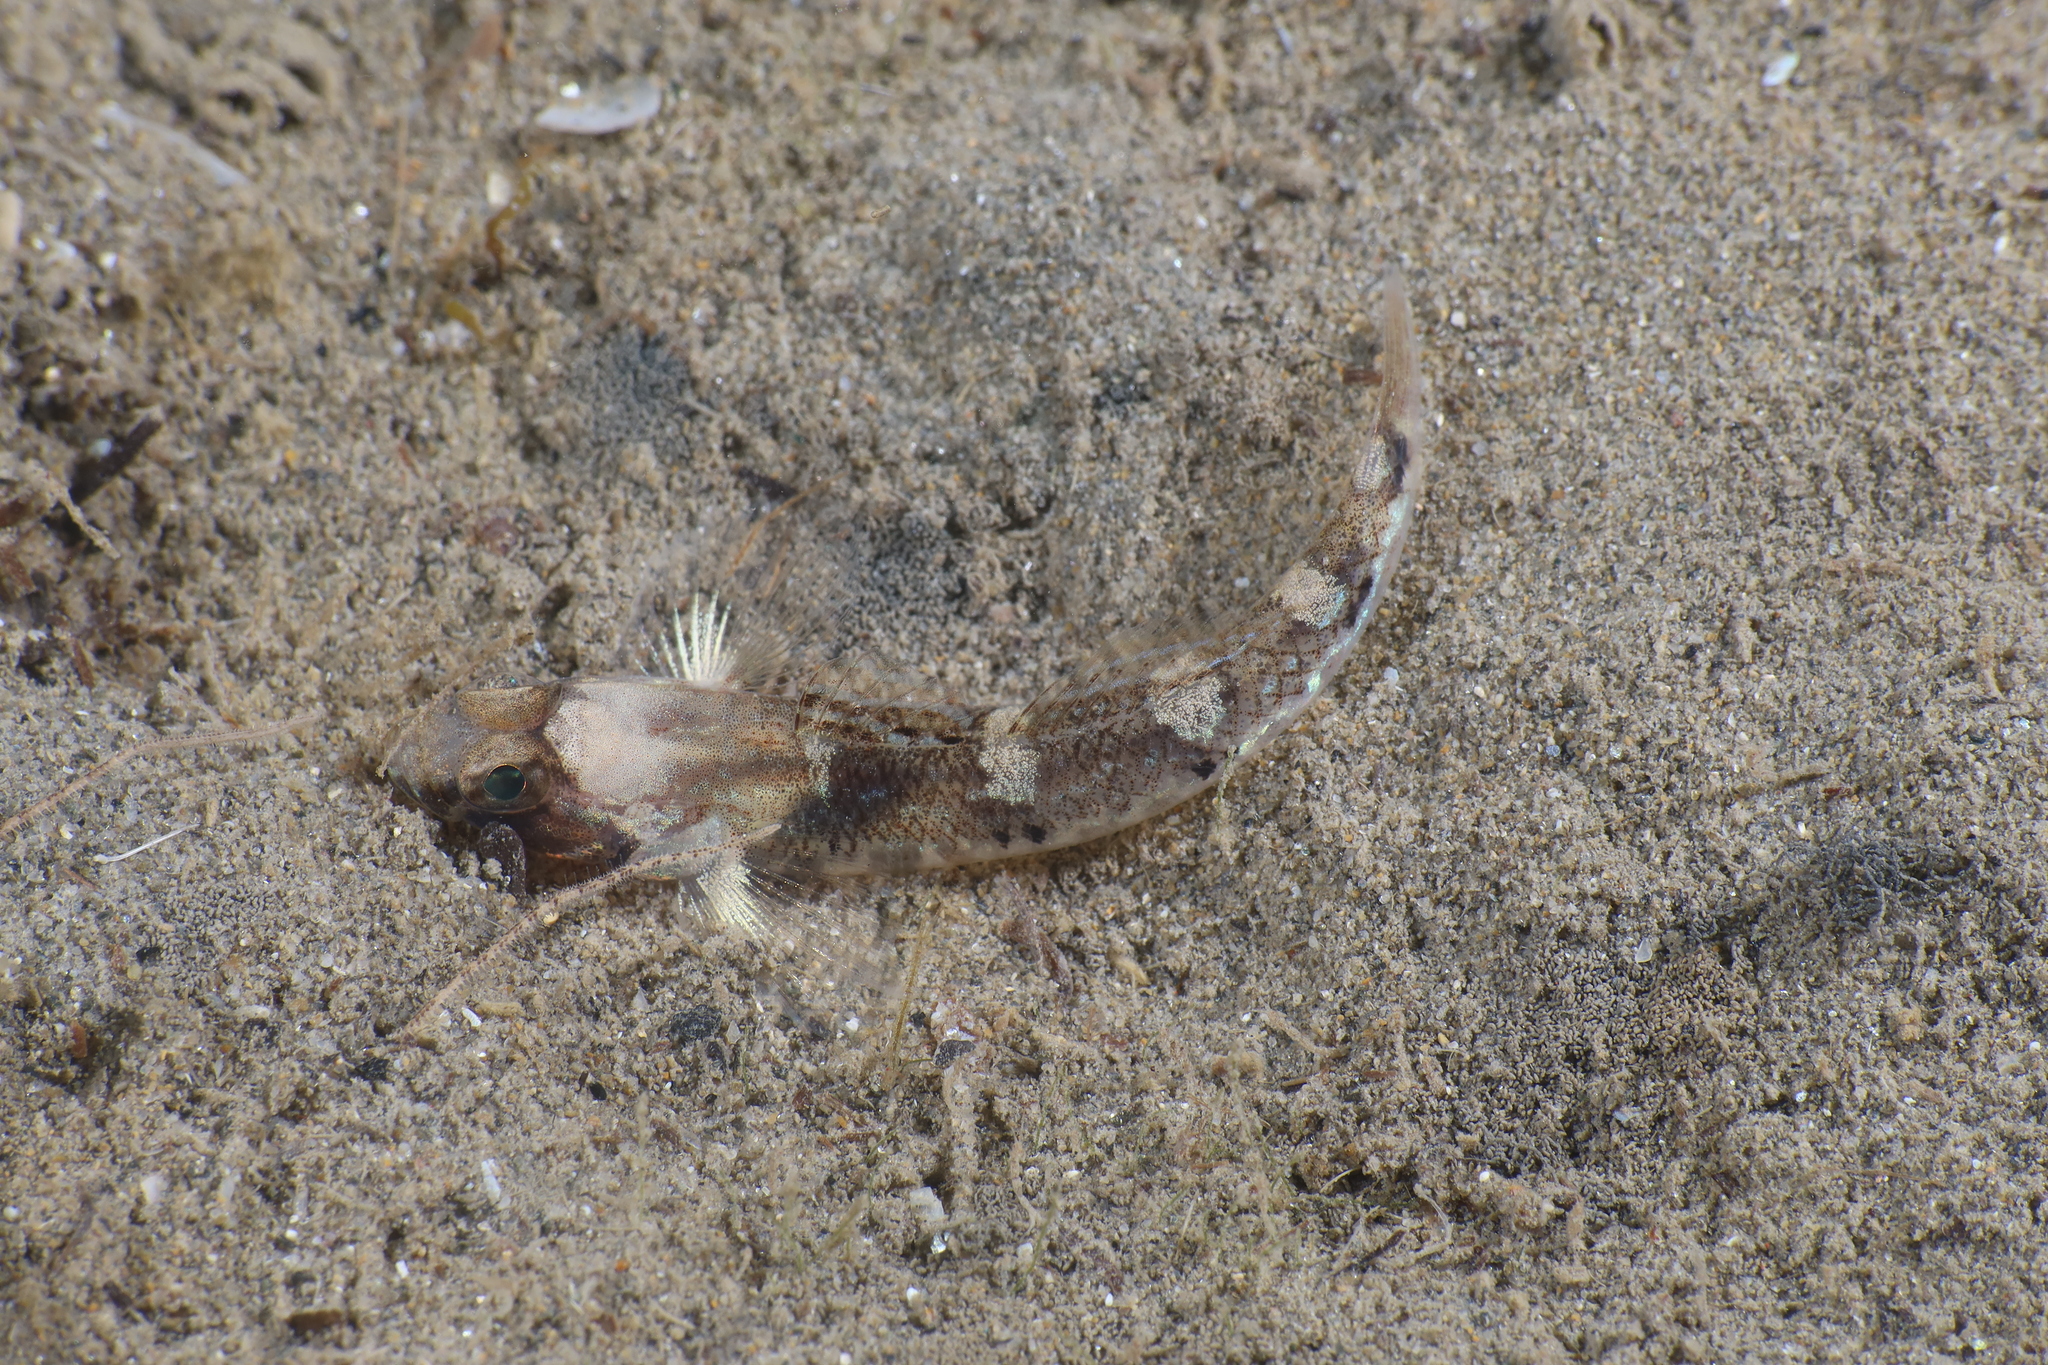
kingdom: Animalia
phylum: Chordata
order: Perciformes
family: Gobiidae
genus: Pomatoschistus
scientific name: Pomatoschistus pictus
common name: Painted goby
